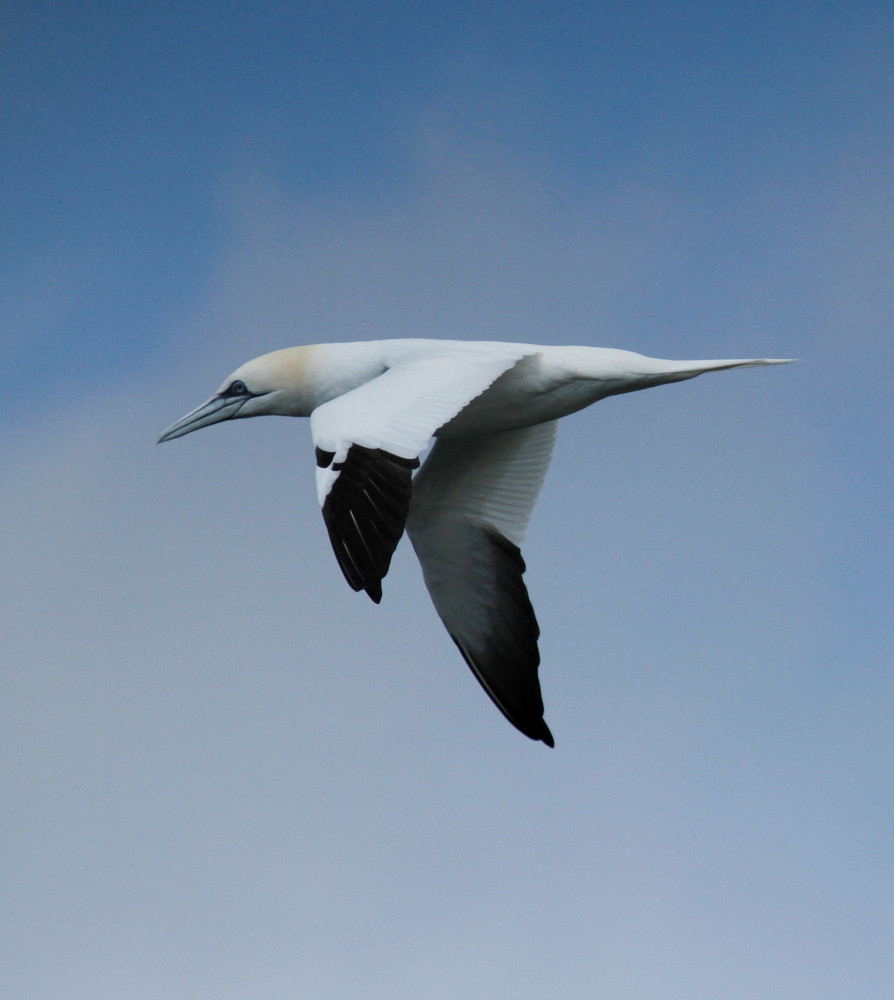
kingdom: Animalia
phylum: Chordata
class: Aves
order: Suliformes
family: Sulidae
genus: Morus
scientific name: Morus bassanus
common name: Northern gannet
